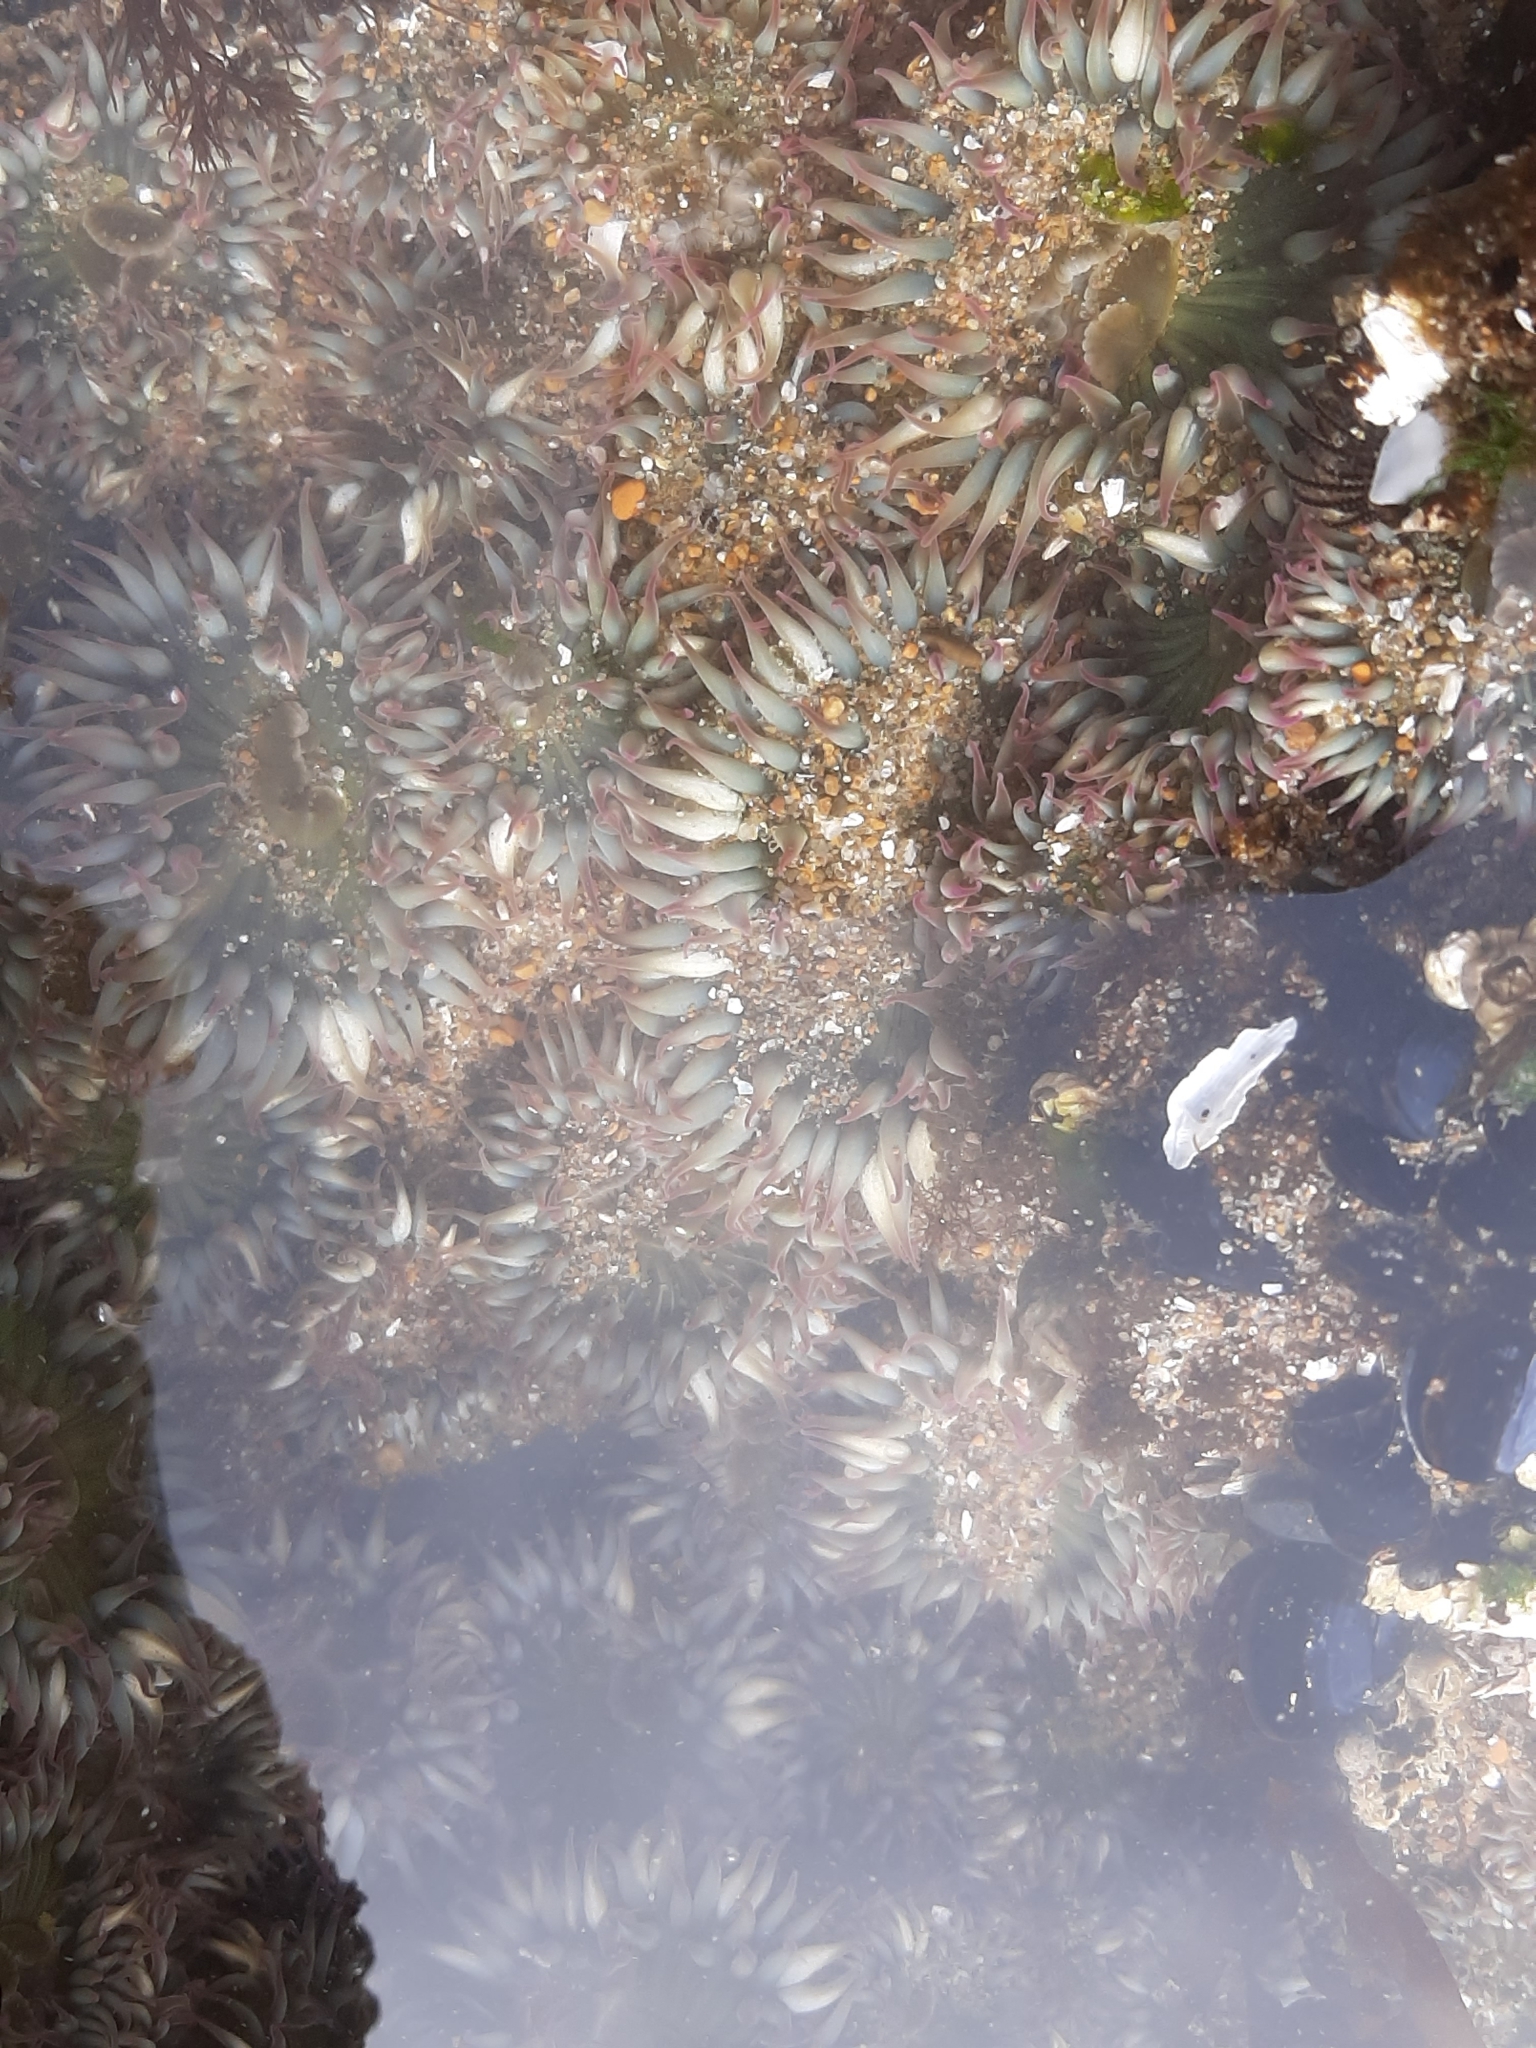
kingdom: Animalia
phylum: Cnidaria
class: Anthozoa
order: Actiniaria
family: Actiniidae
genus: Anthopleura
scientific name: Anthopleura elegantissima
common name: Clonal anemone
